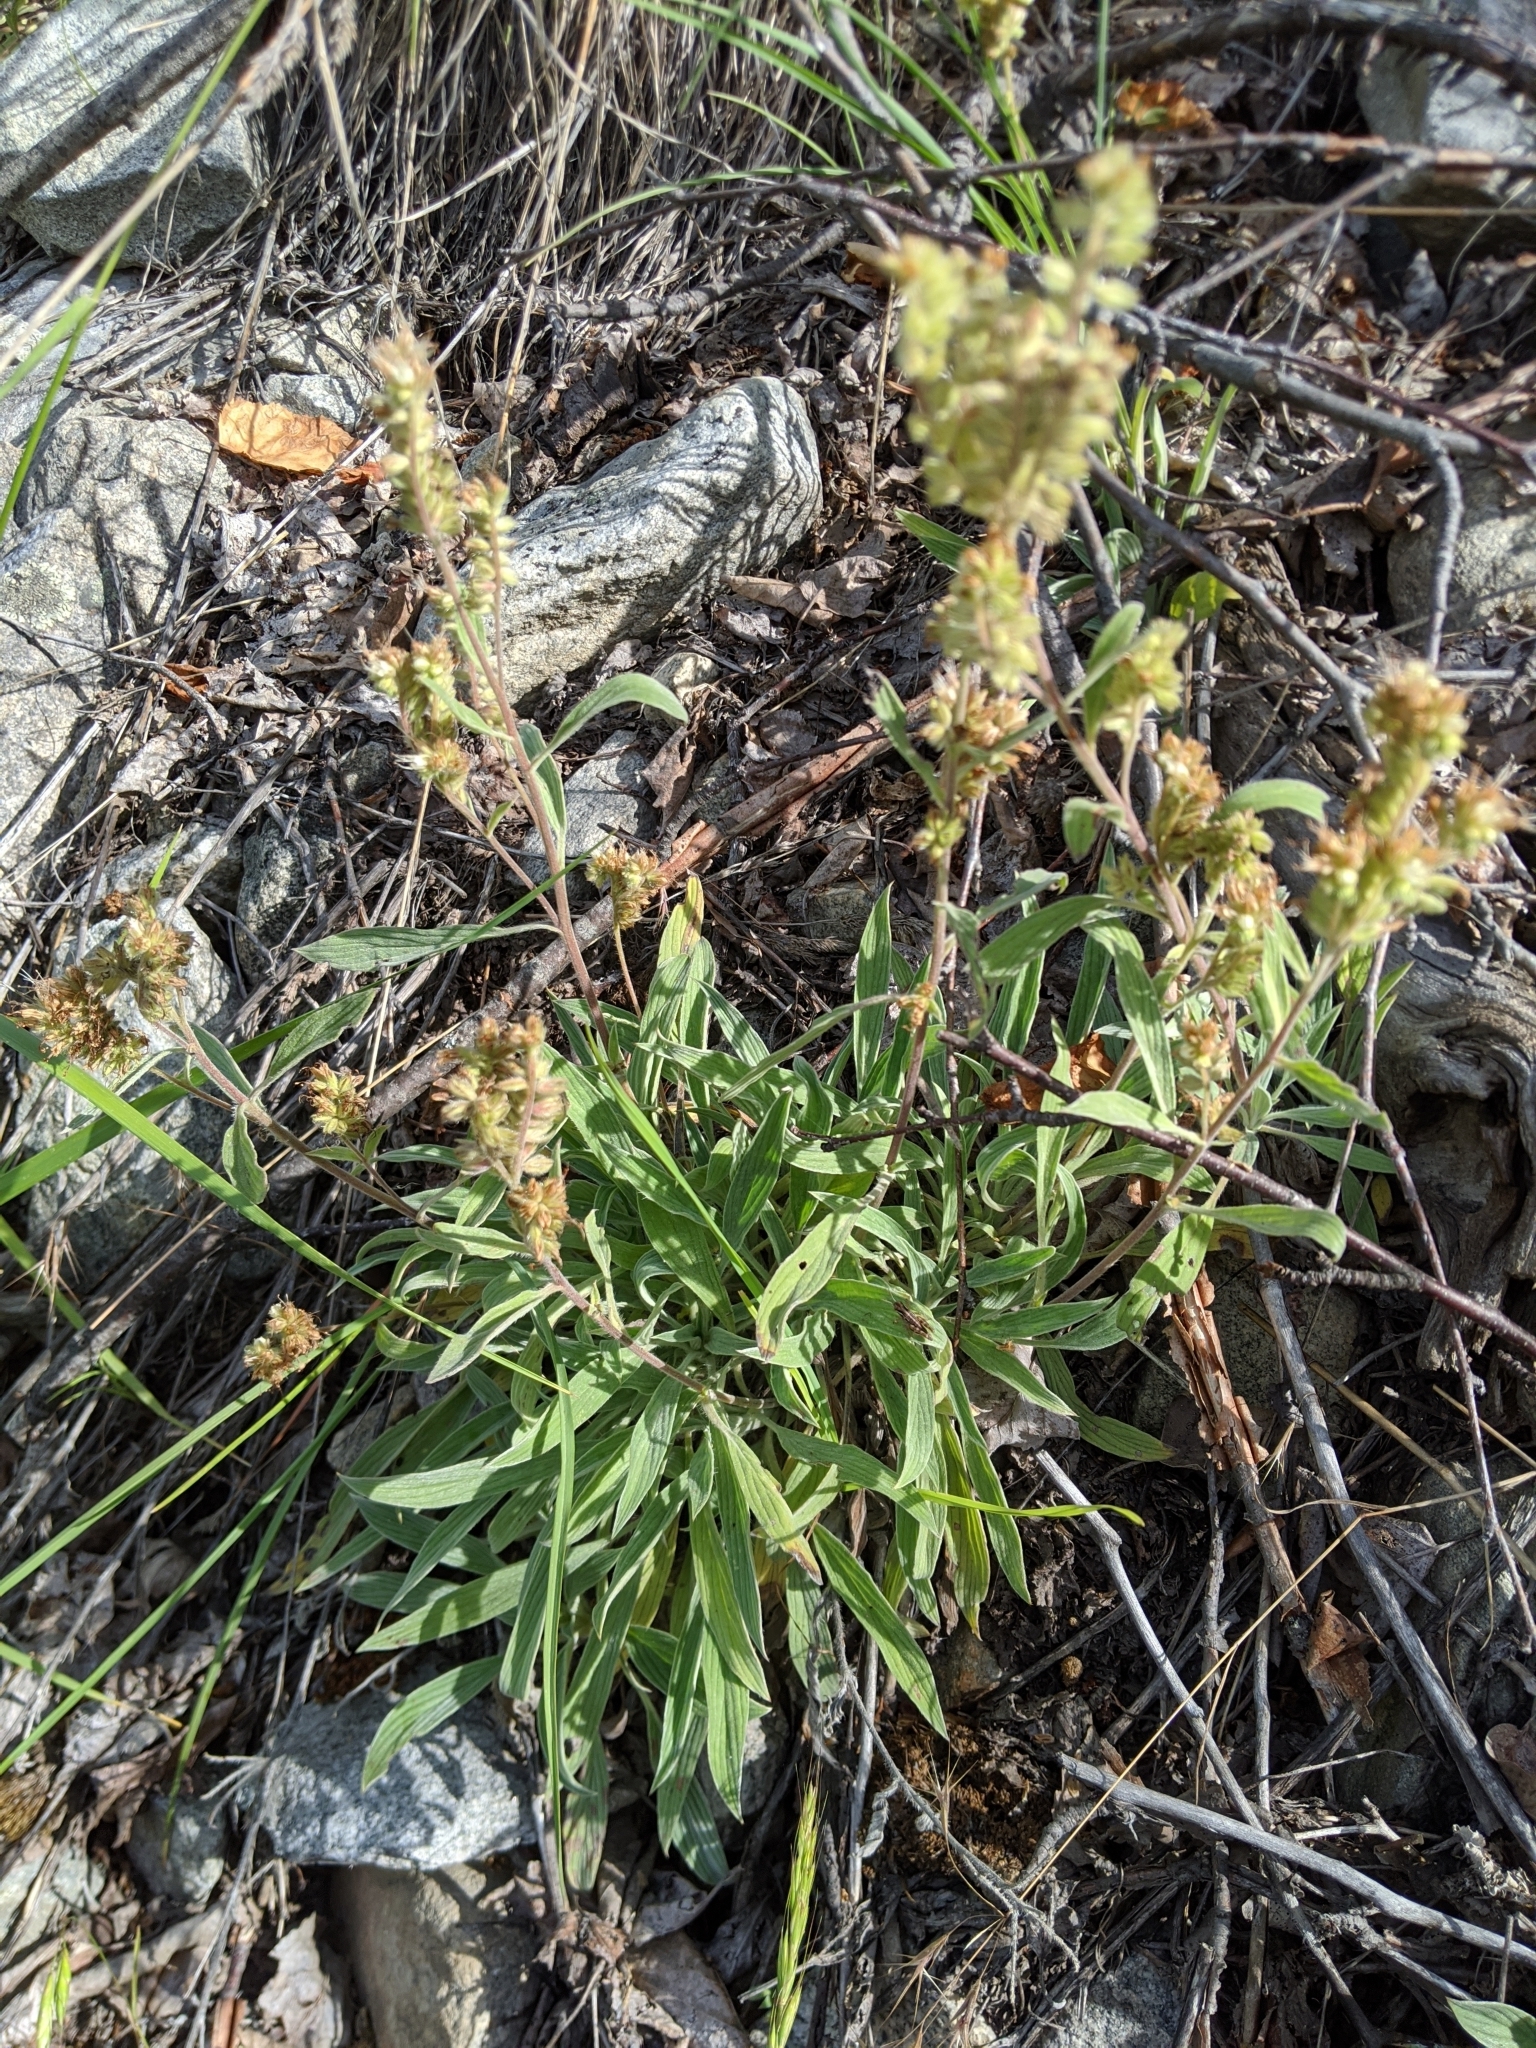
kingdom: Plantae
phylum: Tracheophyta
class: Magnoliopsida
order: Boraginales
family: Hydrophyllaceae
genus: Phacelia
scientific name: Phacelia hastata
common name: Silver-leaved phacelia
